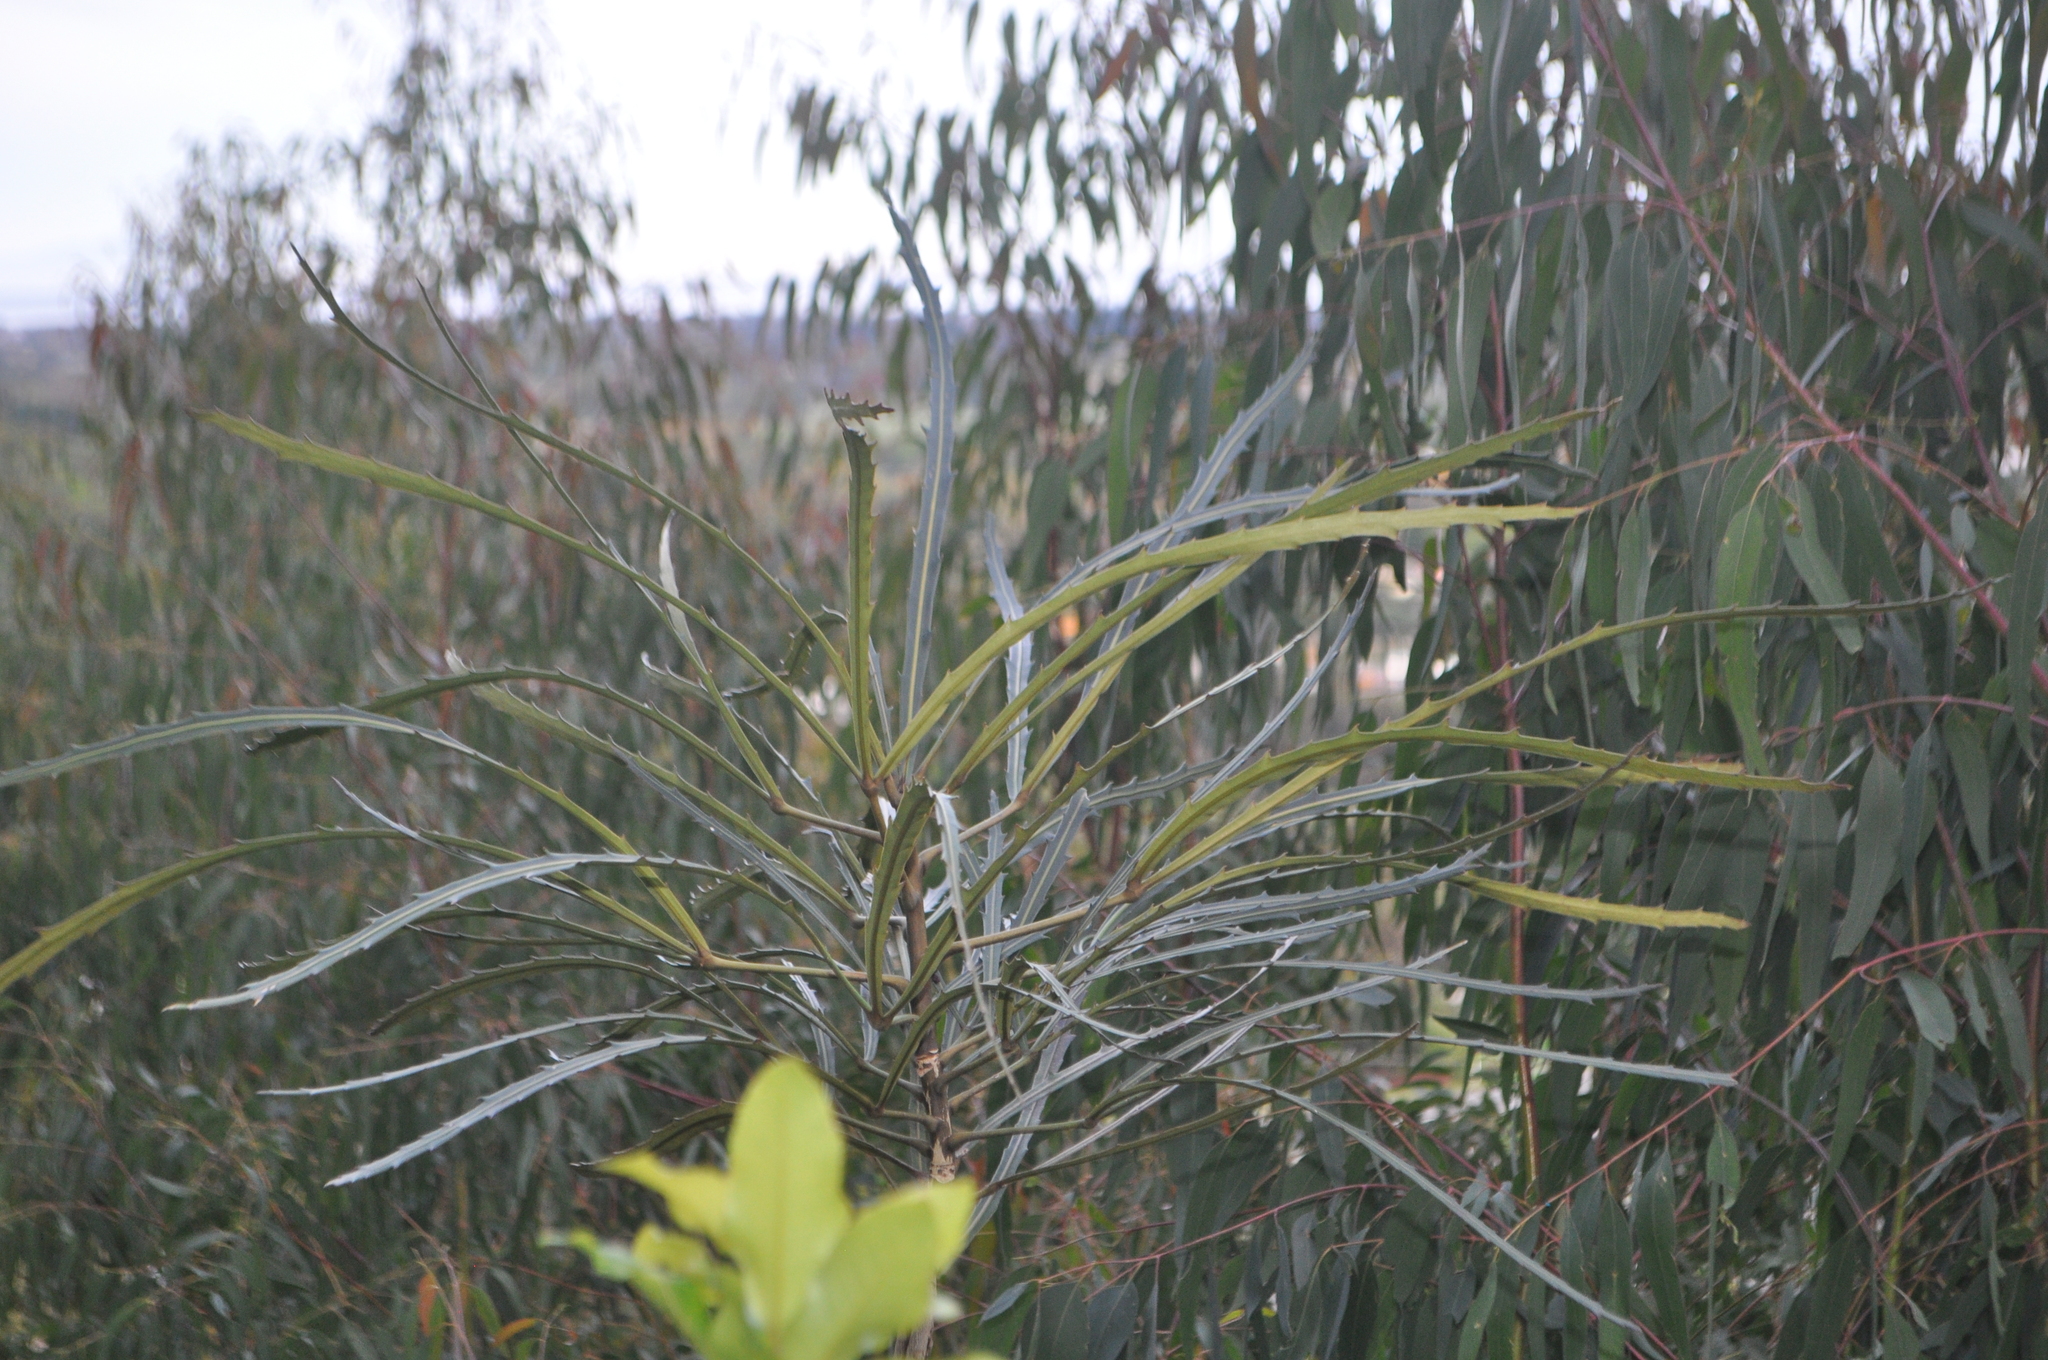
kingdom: Plantae
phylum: Tracheophyta
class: Magnoliopsida
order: Apiales
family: Araliaceae
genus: Pseudopanax
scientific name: Pseudopanax
